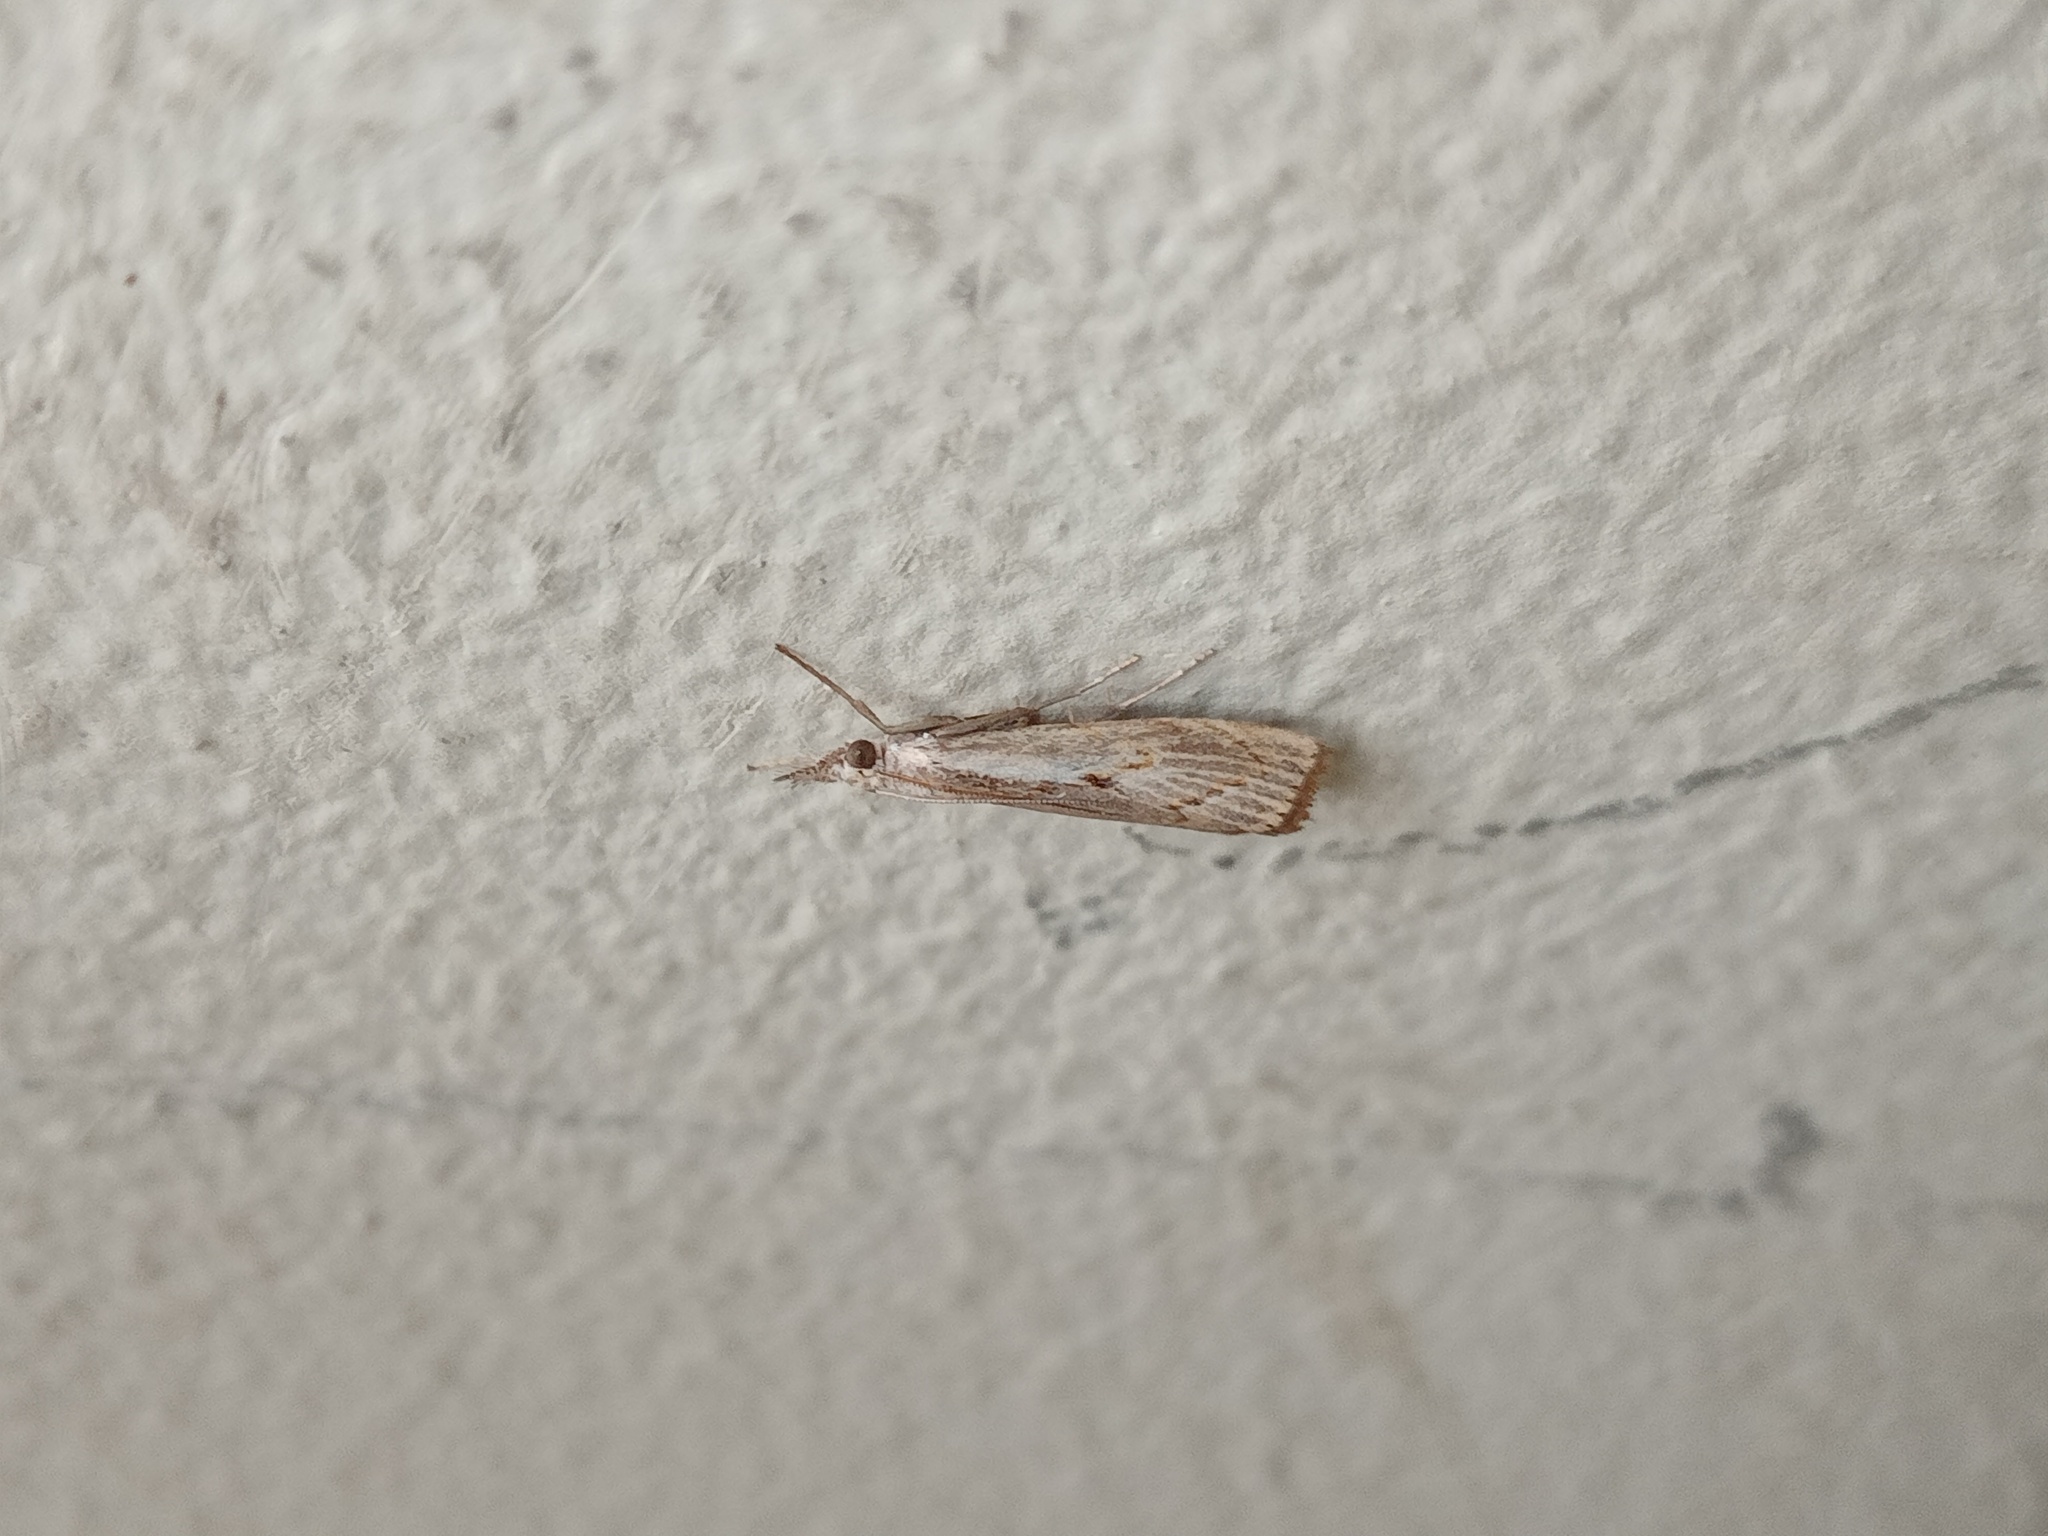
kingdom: Animalia
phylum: Arthropoda
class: Insecta
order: Lepidoptera
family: Crambidae
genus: Agriphila
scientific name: Agriphila geniculea
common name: Elbow-stripe grass-veneer
